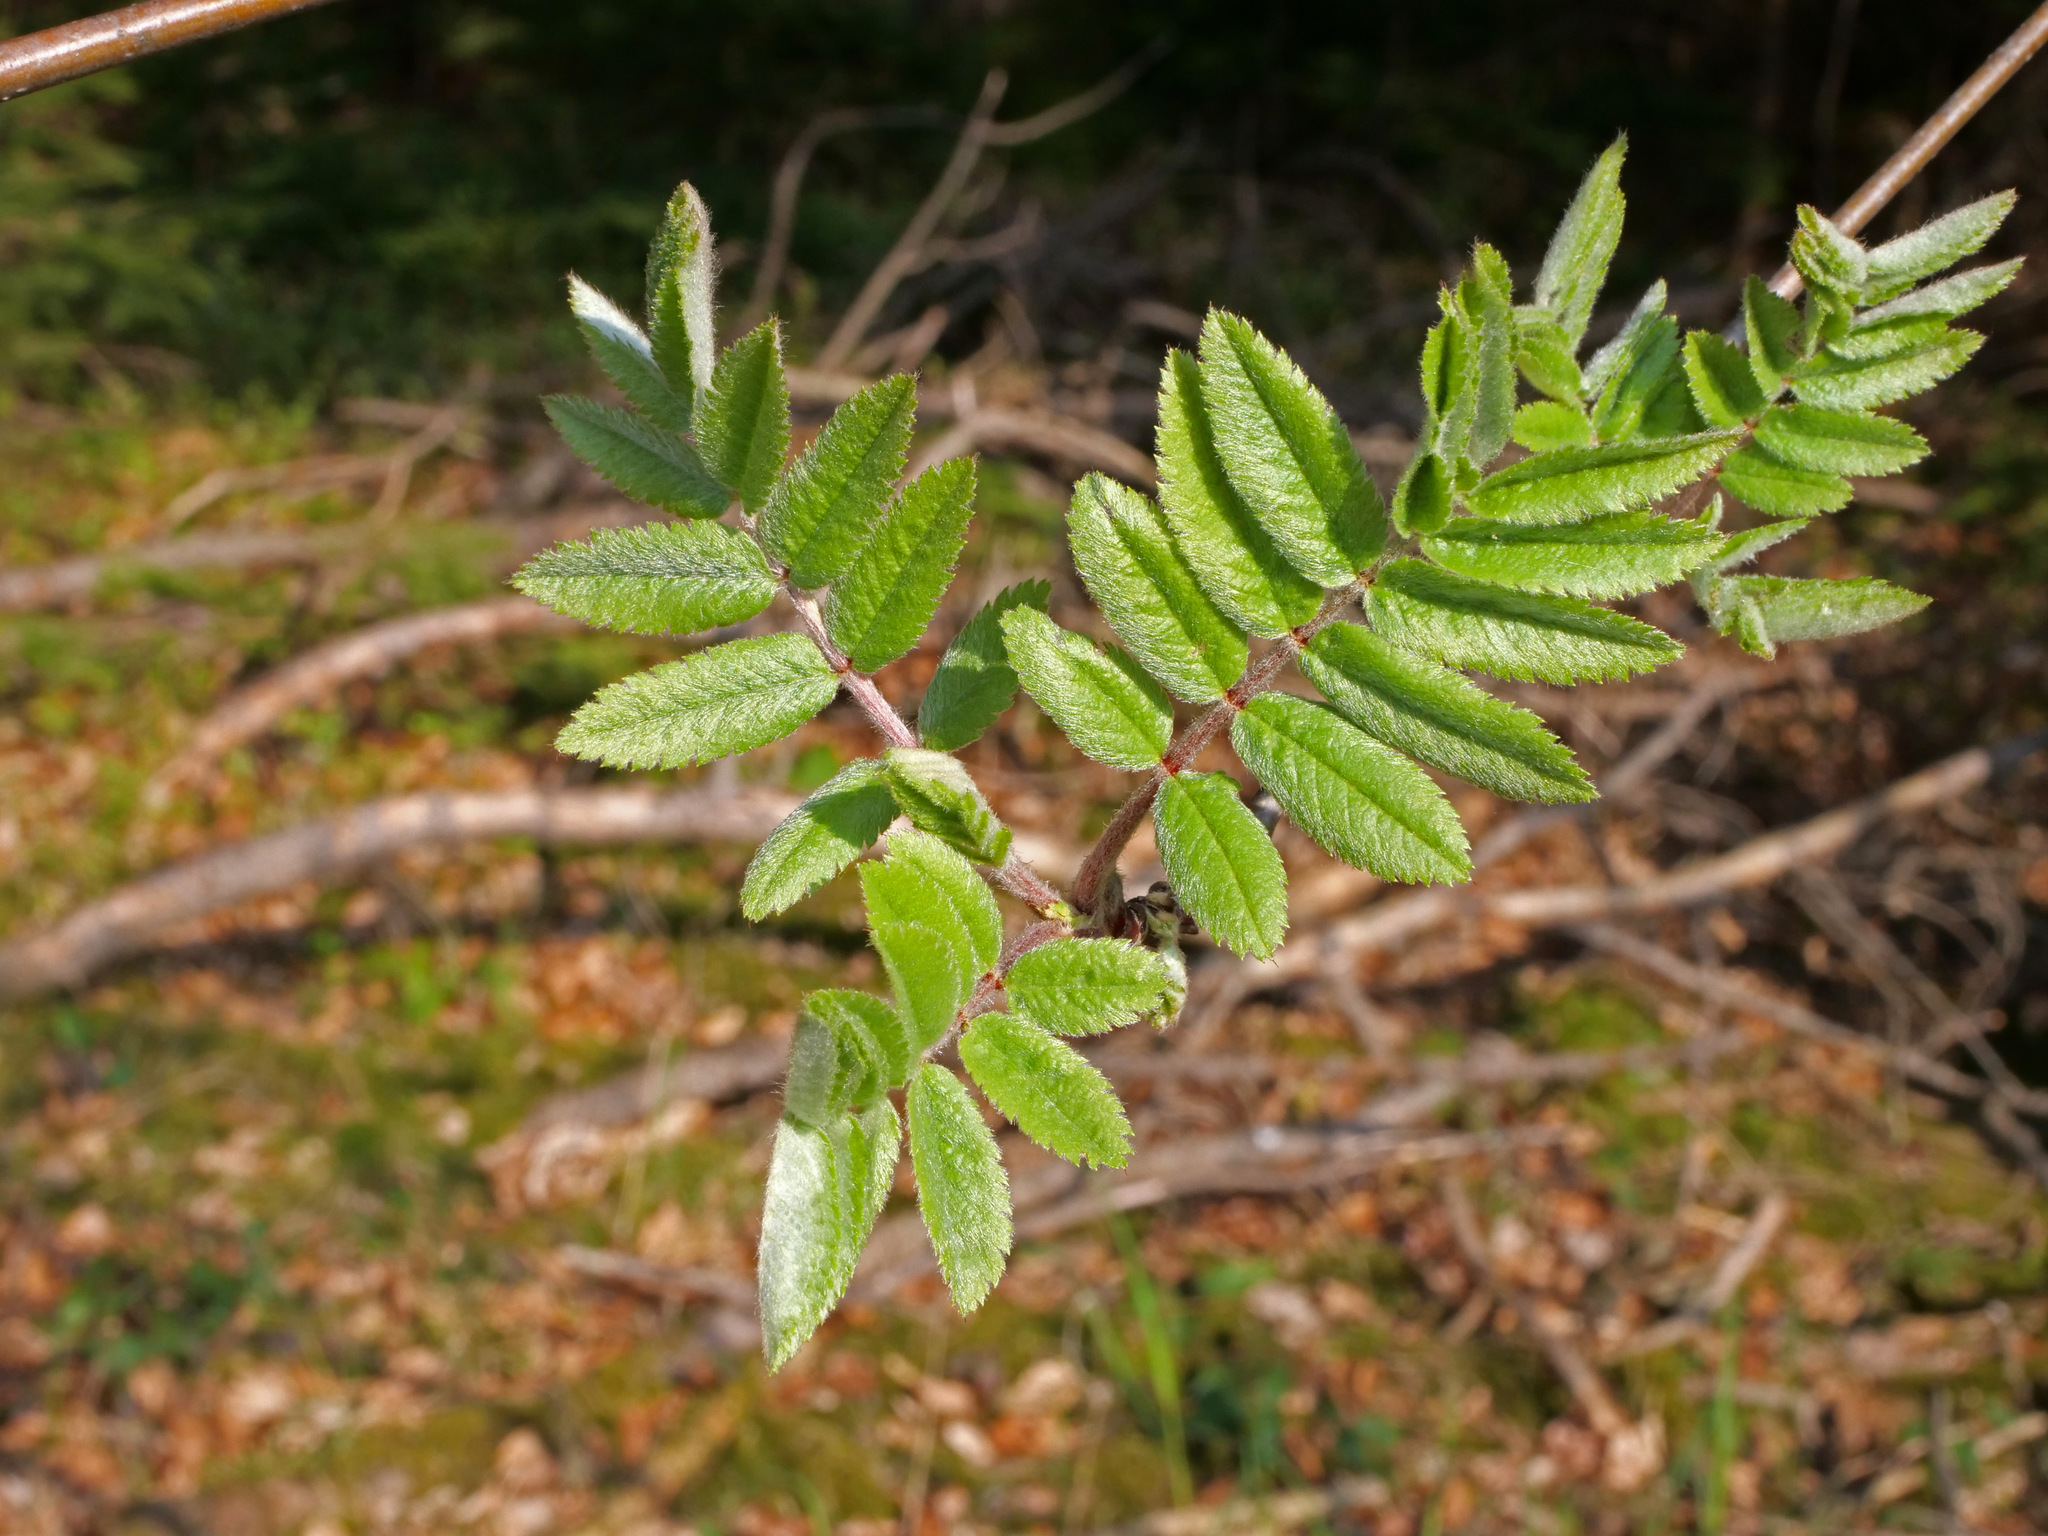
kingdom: Plantae
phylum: Tracheophyta
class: Magnoliopsida
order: Rosales
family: Rosaceae
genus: Sorbus
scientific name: Sorbus aucuparia
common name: Rowan
